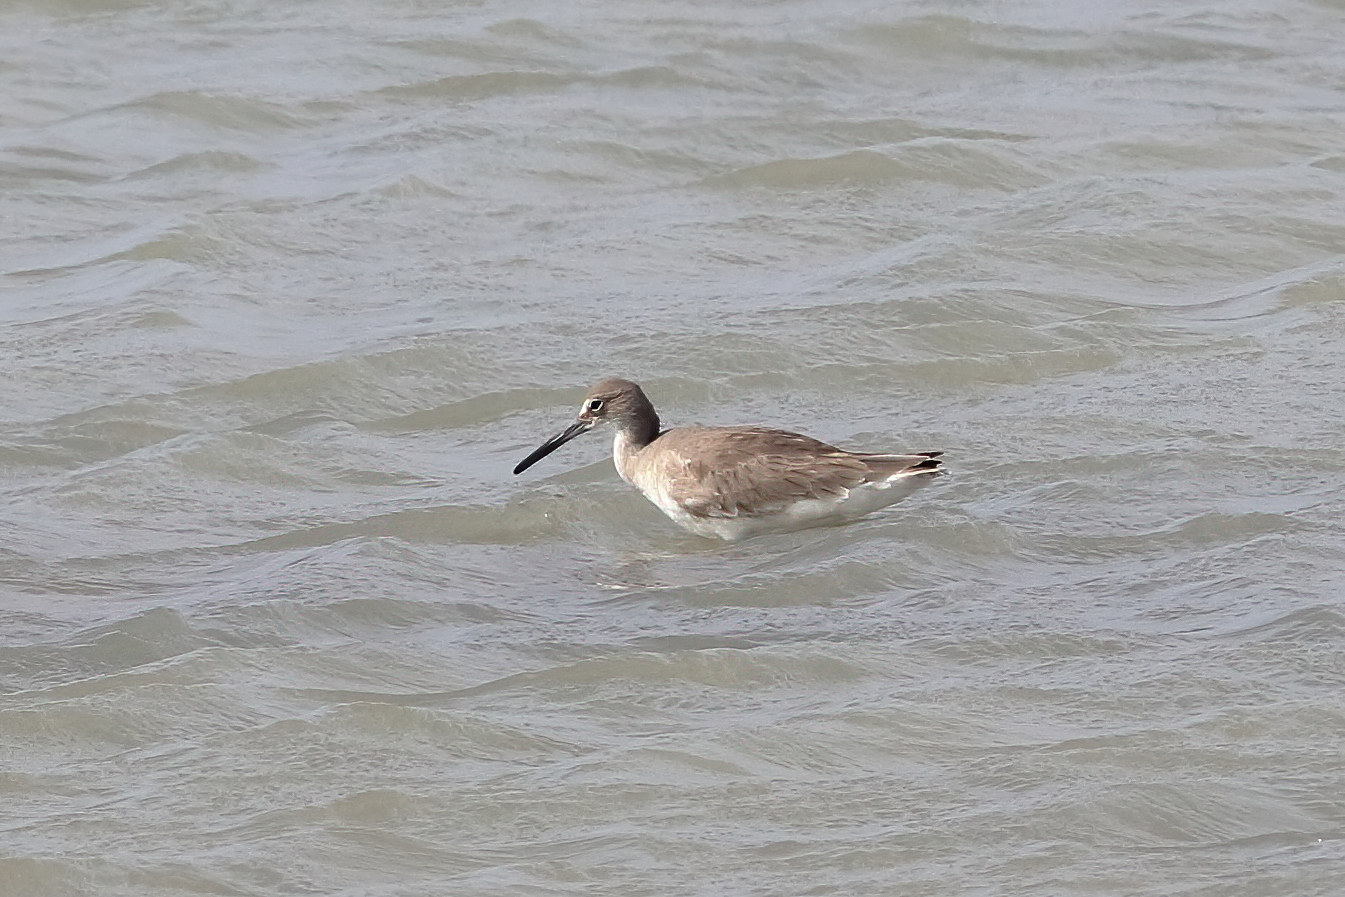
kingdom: Animalia
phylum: Chordata
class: Aves
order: Charadriiformes
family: Scolopacidae
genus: Tringa
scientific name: Tringa semipalmata
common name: Willet
